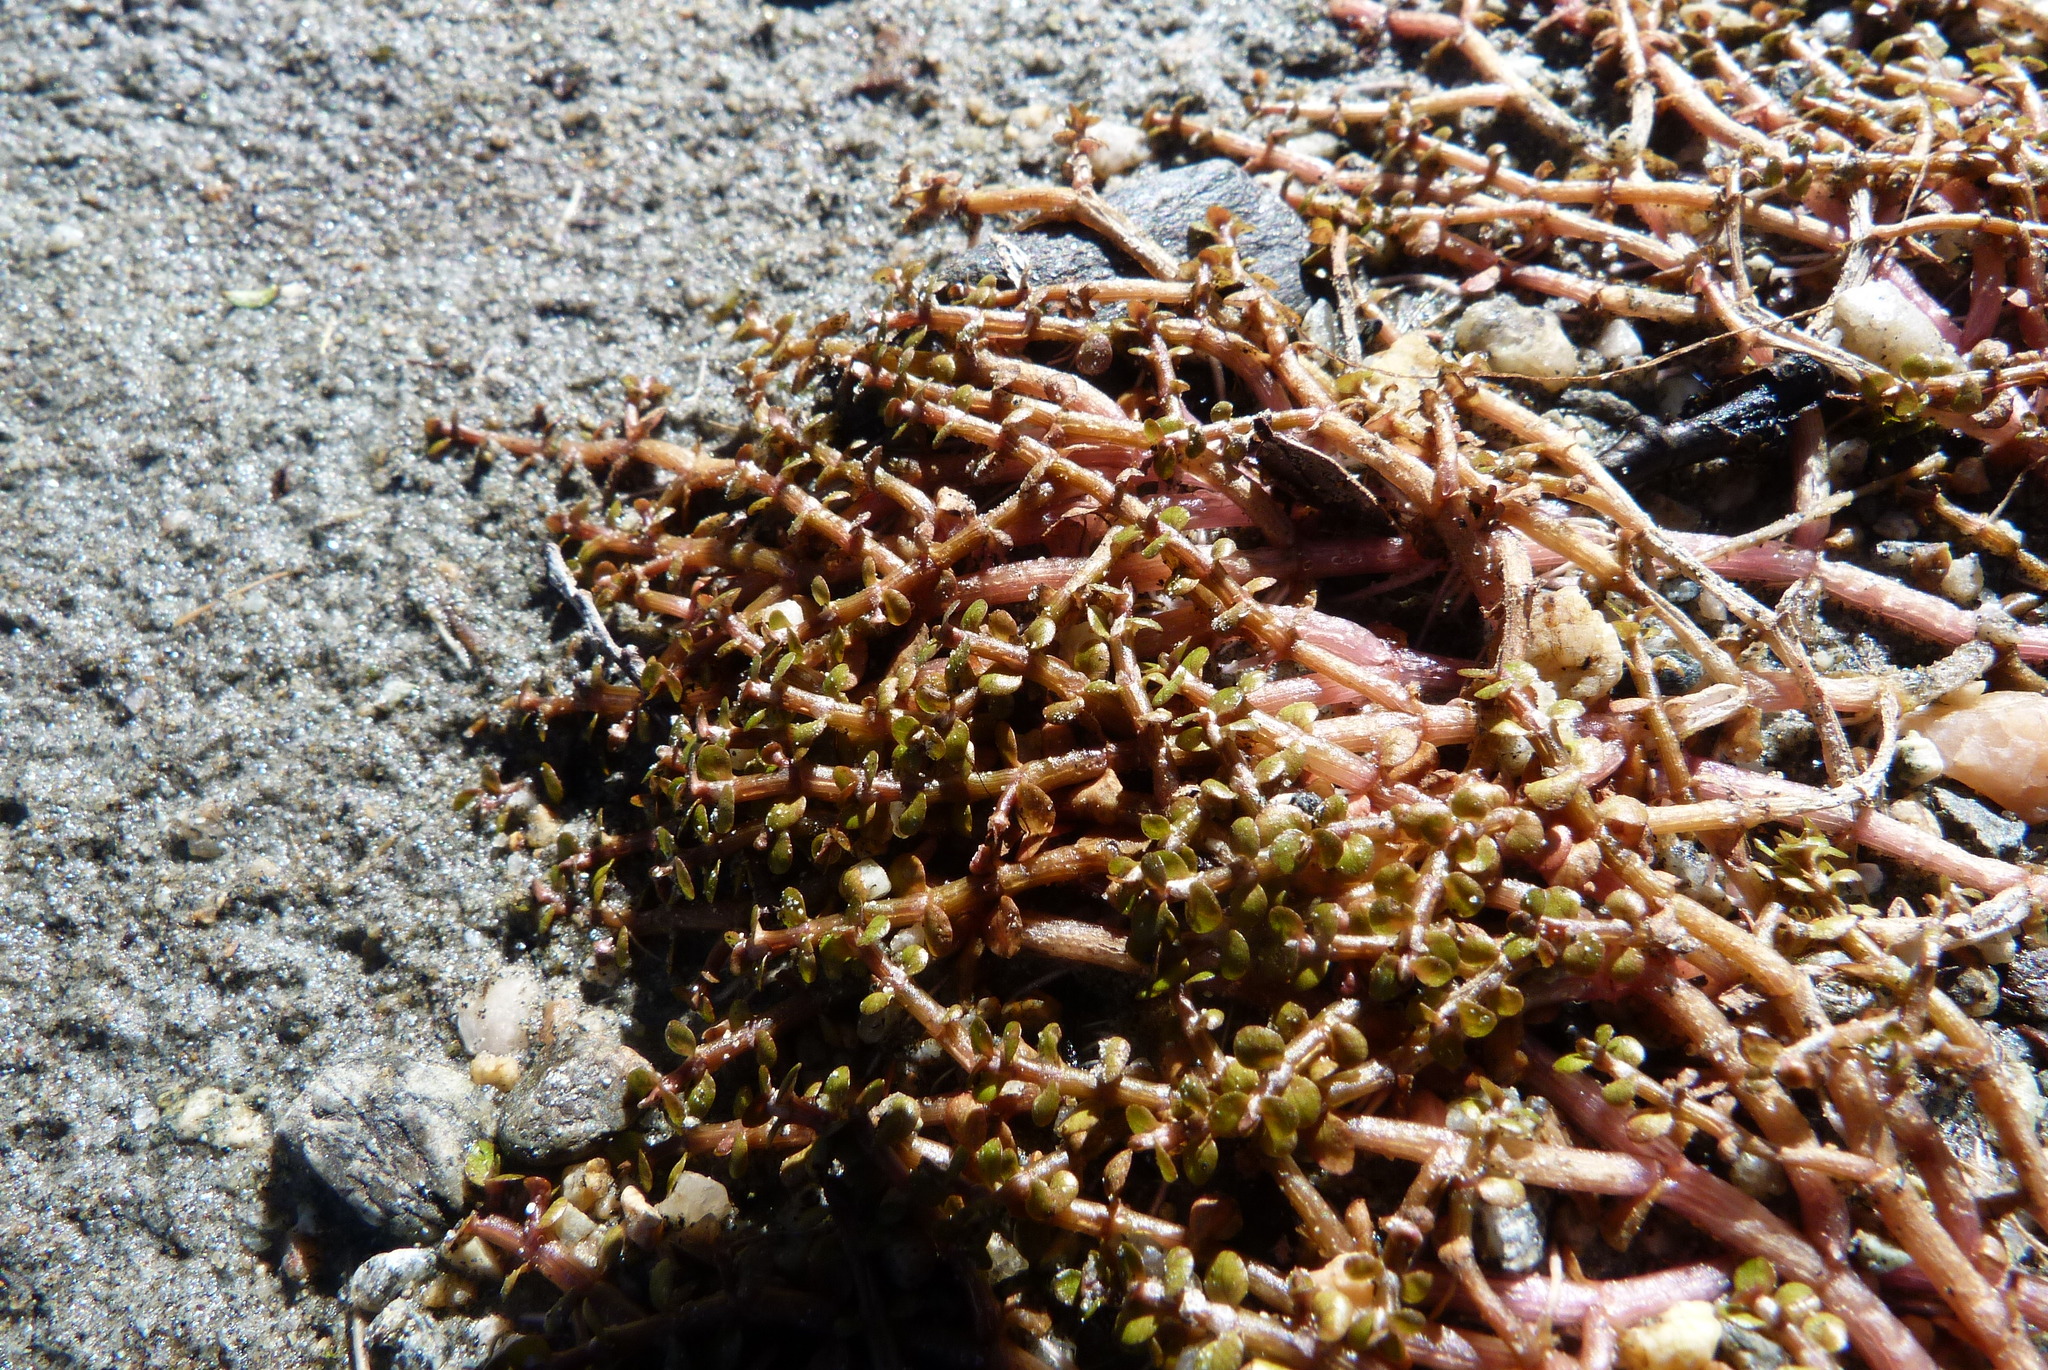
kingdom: Plantae
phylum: Tracheophyta
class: Magnoliopsida
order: Malpighiales
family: Elatinaceae
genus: Elatine
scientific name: Elatine gratioloides
